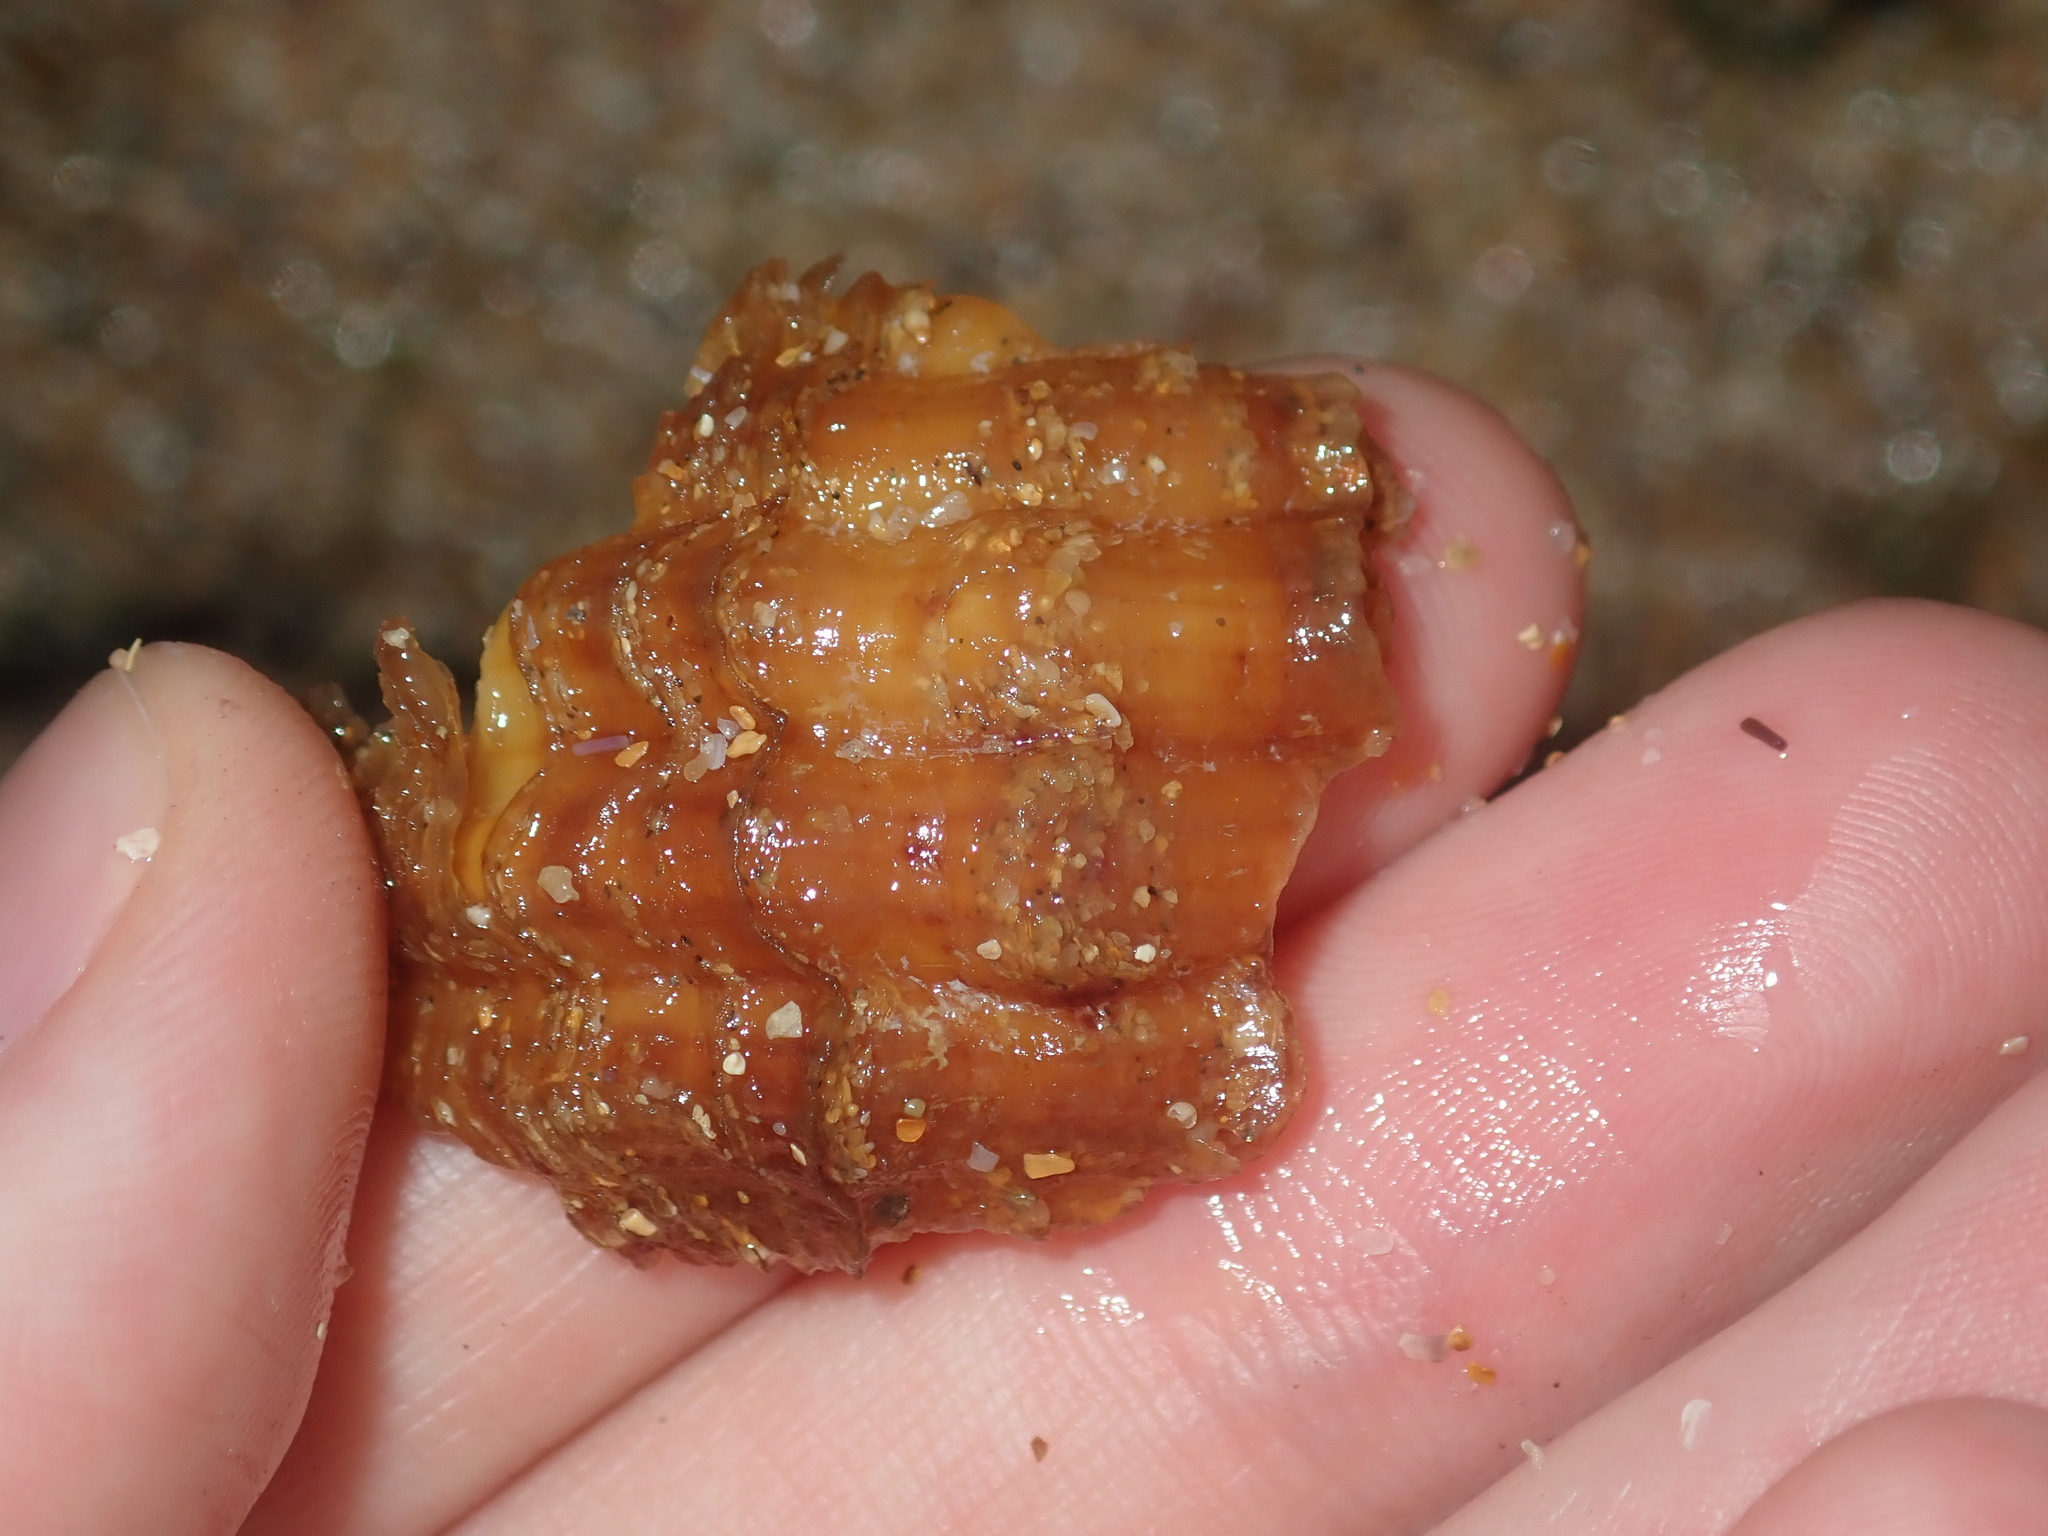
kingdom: Animalia
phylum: Mollusca
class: Gastropoda
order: Littorinimorpha
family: Tonnidae
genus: Tonna
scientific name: Tonna tankervillii
